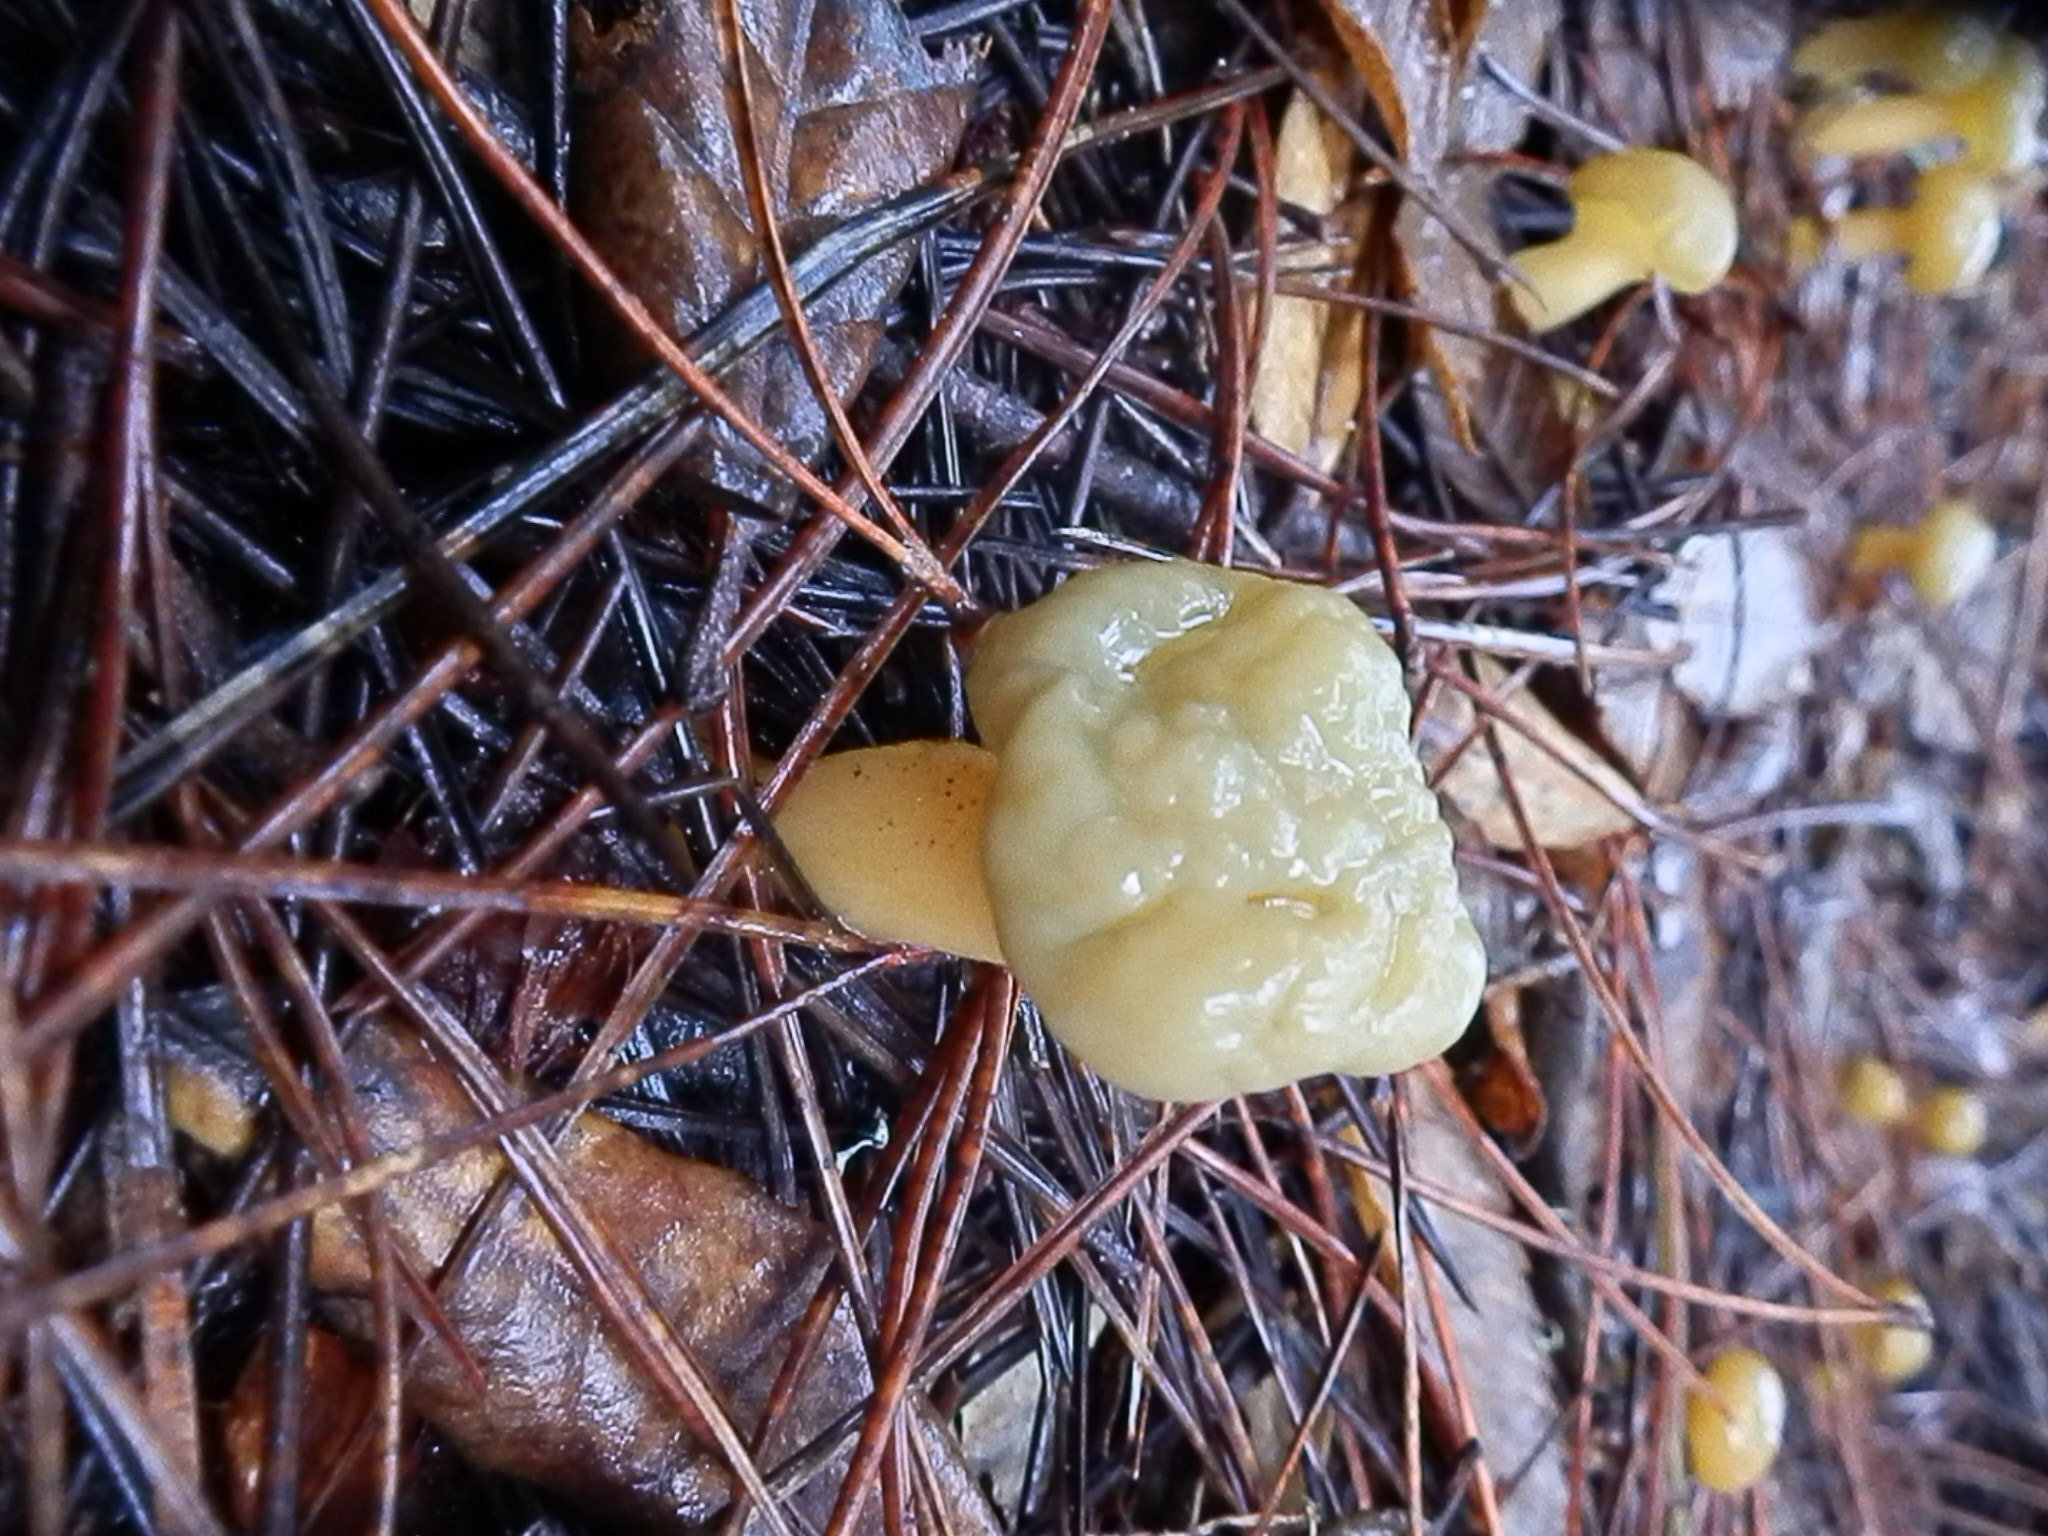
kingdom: Fungi
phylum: Ascomycota
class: Leotiomycetes
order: Leotiales
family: Leotiaceae
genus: Leotia
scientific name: Leotia lubrica
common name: Jellybaby
